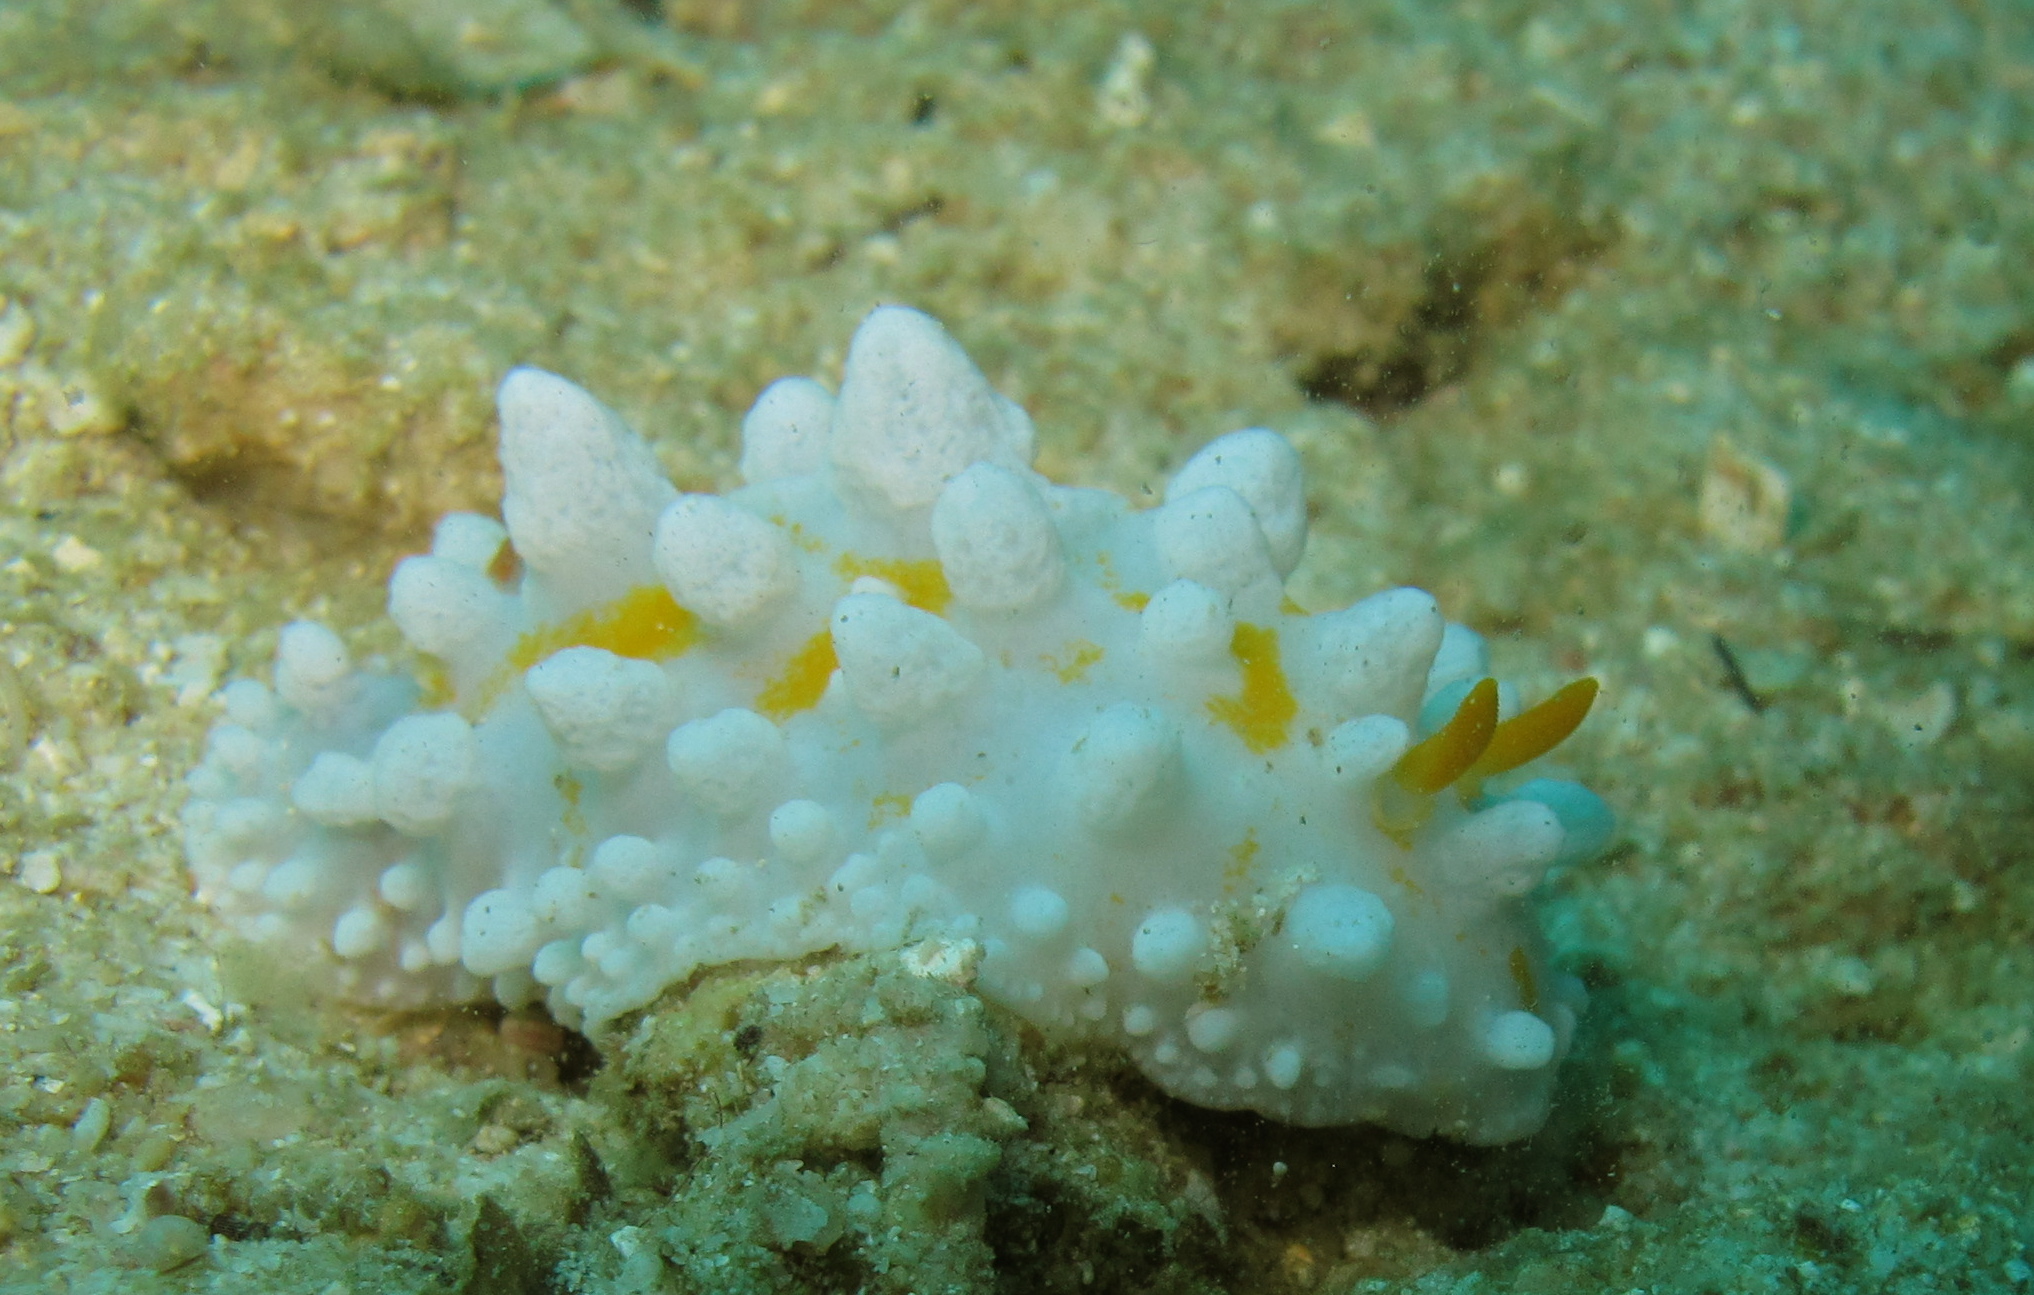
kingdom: Animalia
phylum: Mollusca
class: Gastropoda
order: Nudibranchia
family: Phyllidiidae
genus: Phyllidia
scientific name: Phyllidia ocellata
